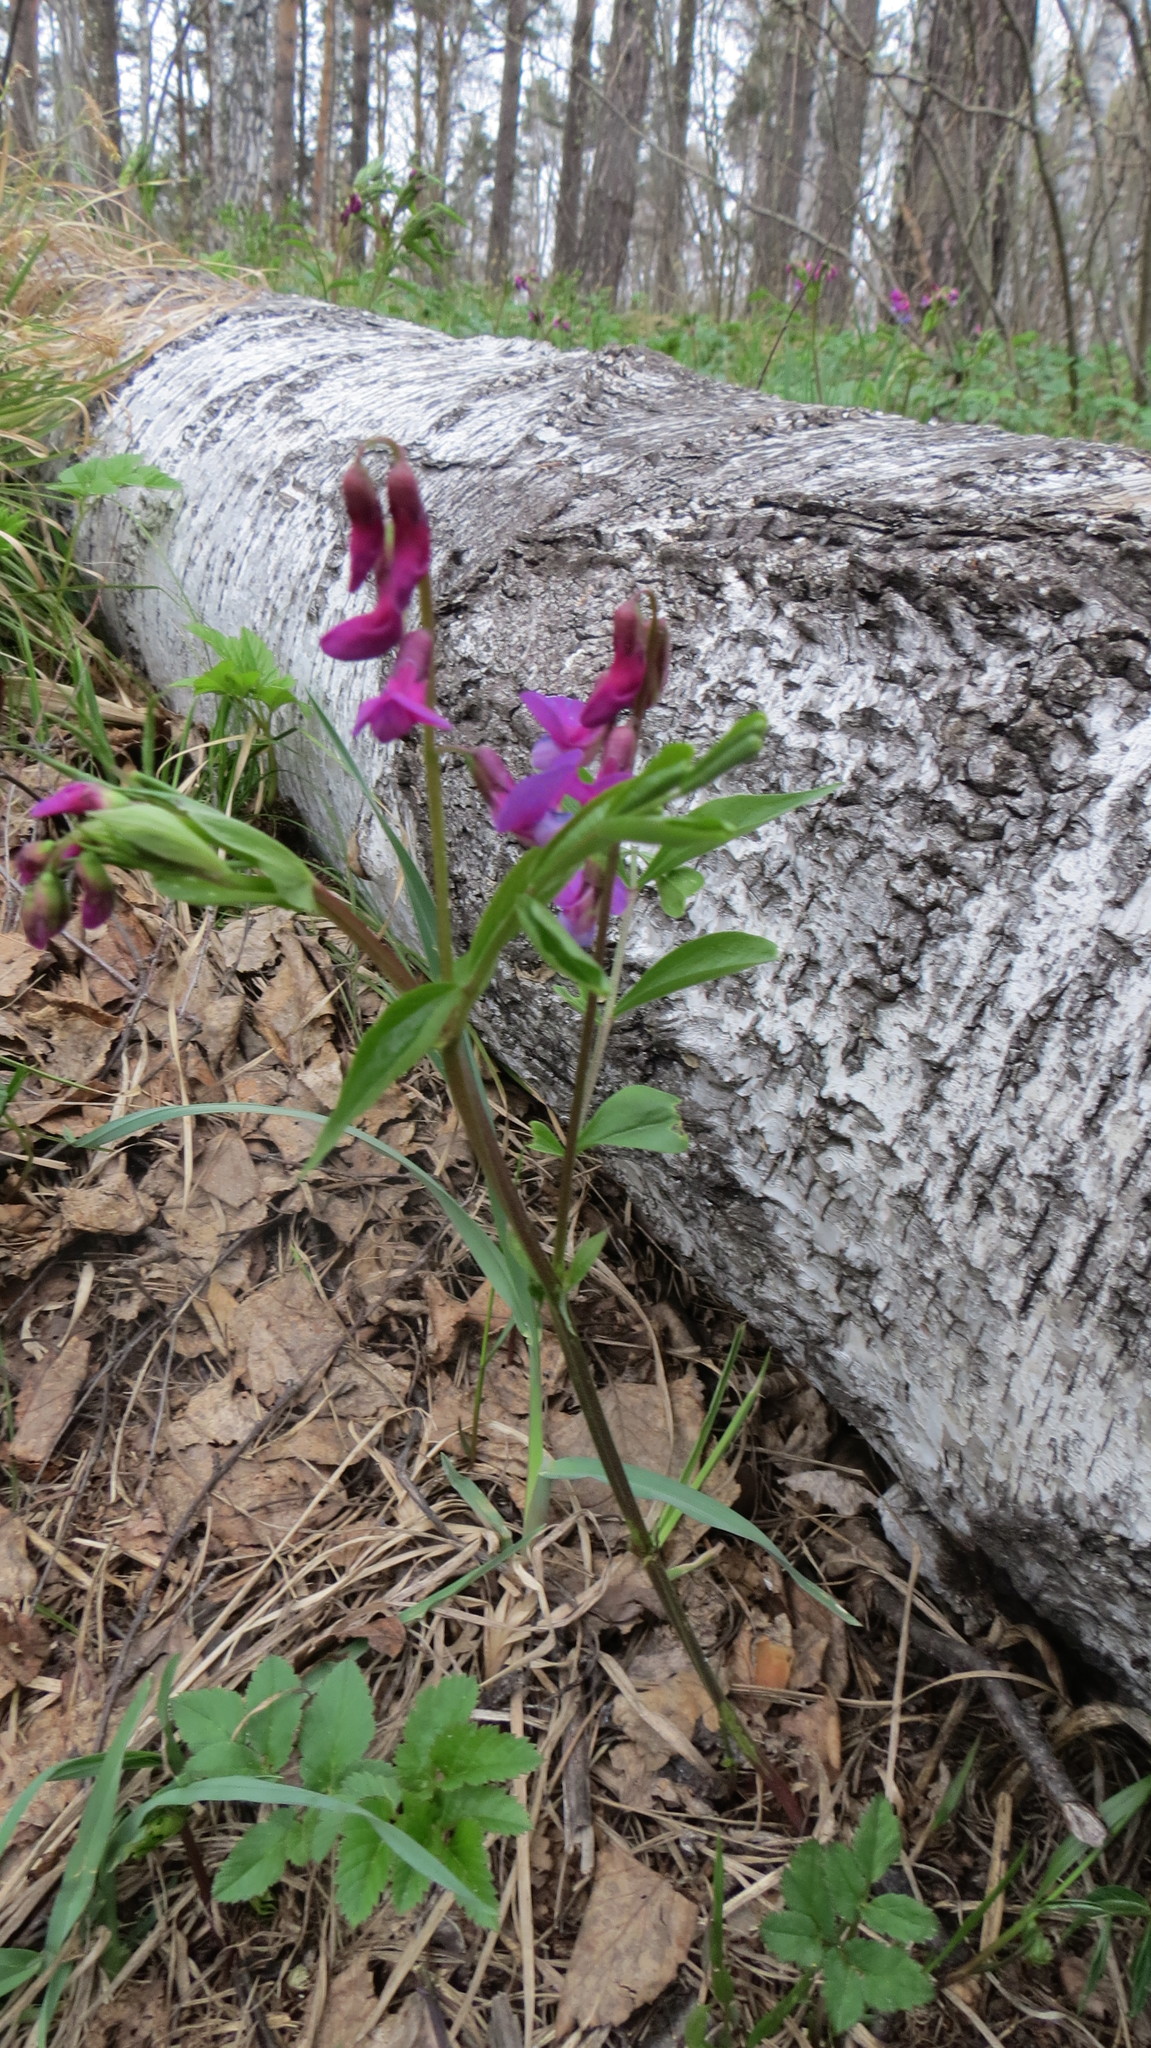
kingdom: Plantae
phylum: Tracheophyta
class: Magnoliopsida
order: Fabales
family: Fabaceae
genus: Lathyrus
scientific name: Lathyrus vernus
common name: Spring pea
